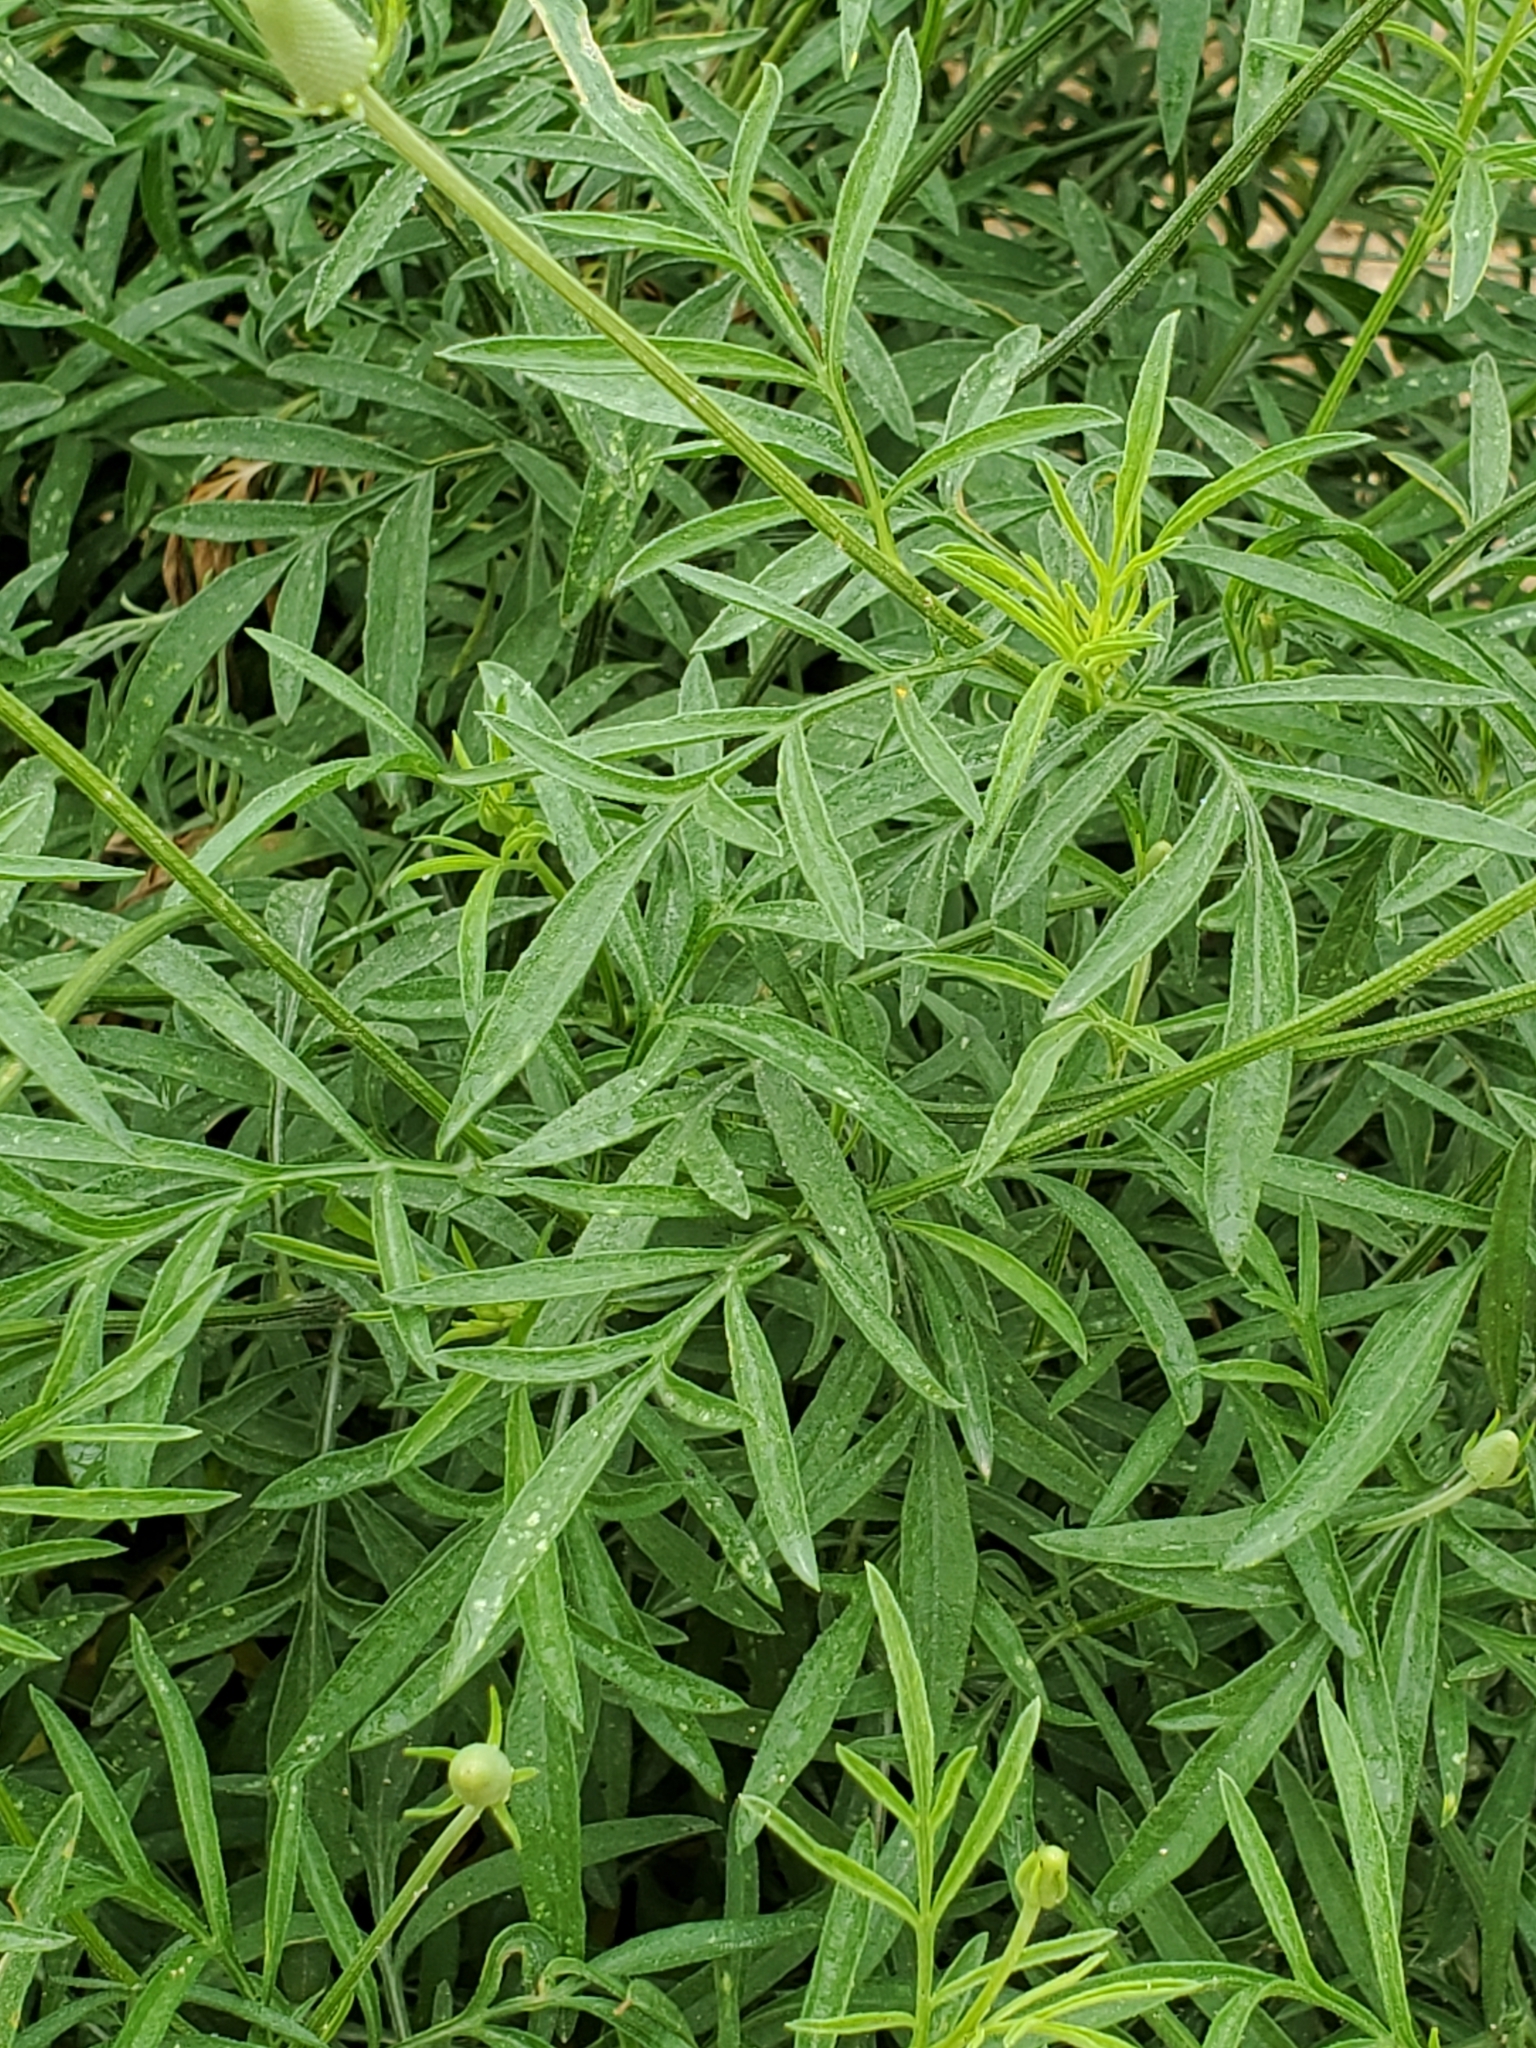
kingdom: Plantae
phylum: Tracheophyta
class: Magnoliopsida
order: Asterales
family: Asteraceae
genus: Ratibida
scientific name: Ratibida columnifera
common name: Prairie coneflower
